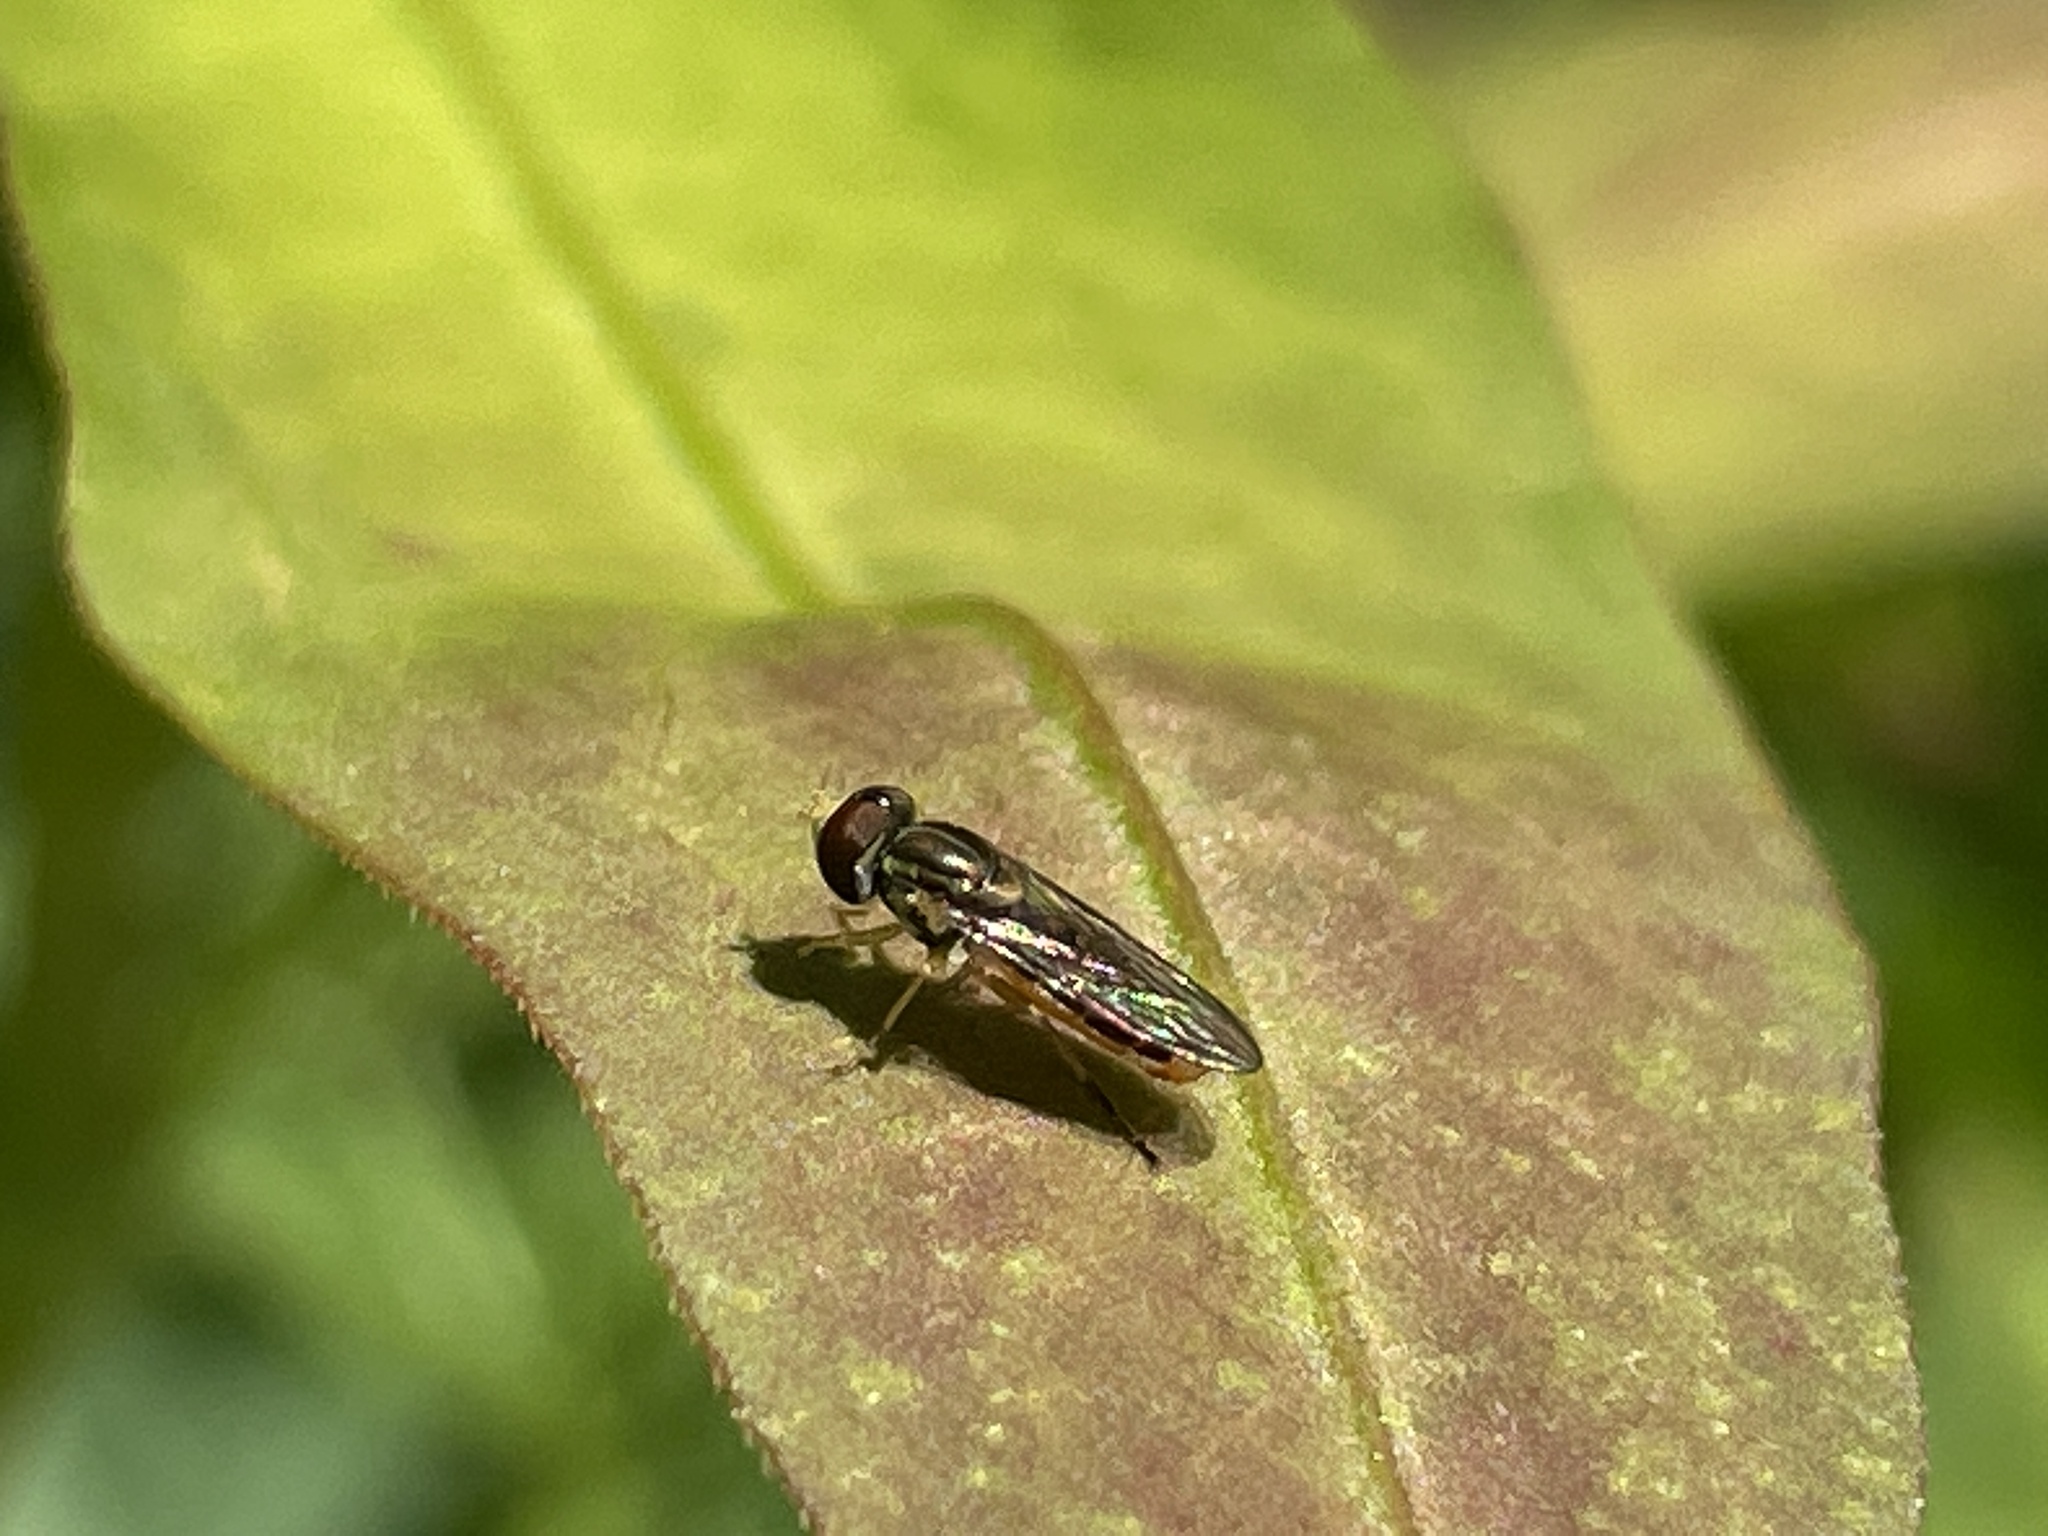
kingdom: Animalia
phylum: Arthropoda
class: Insecta
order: Diptera
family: Syrphidae
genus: Toxomerus
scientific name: Toxomerus marginatus
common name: Syrphid fly
